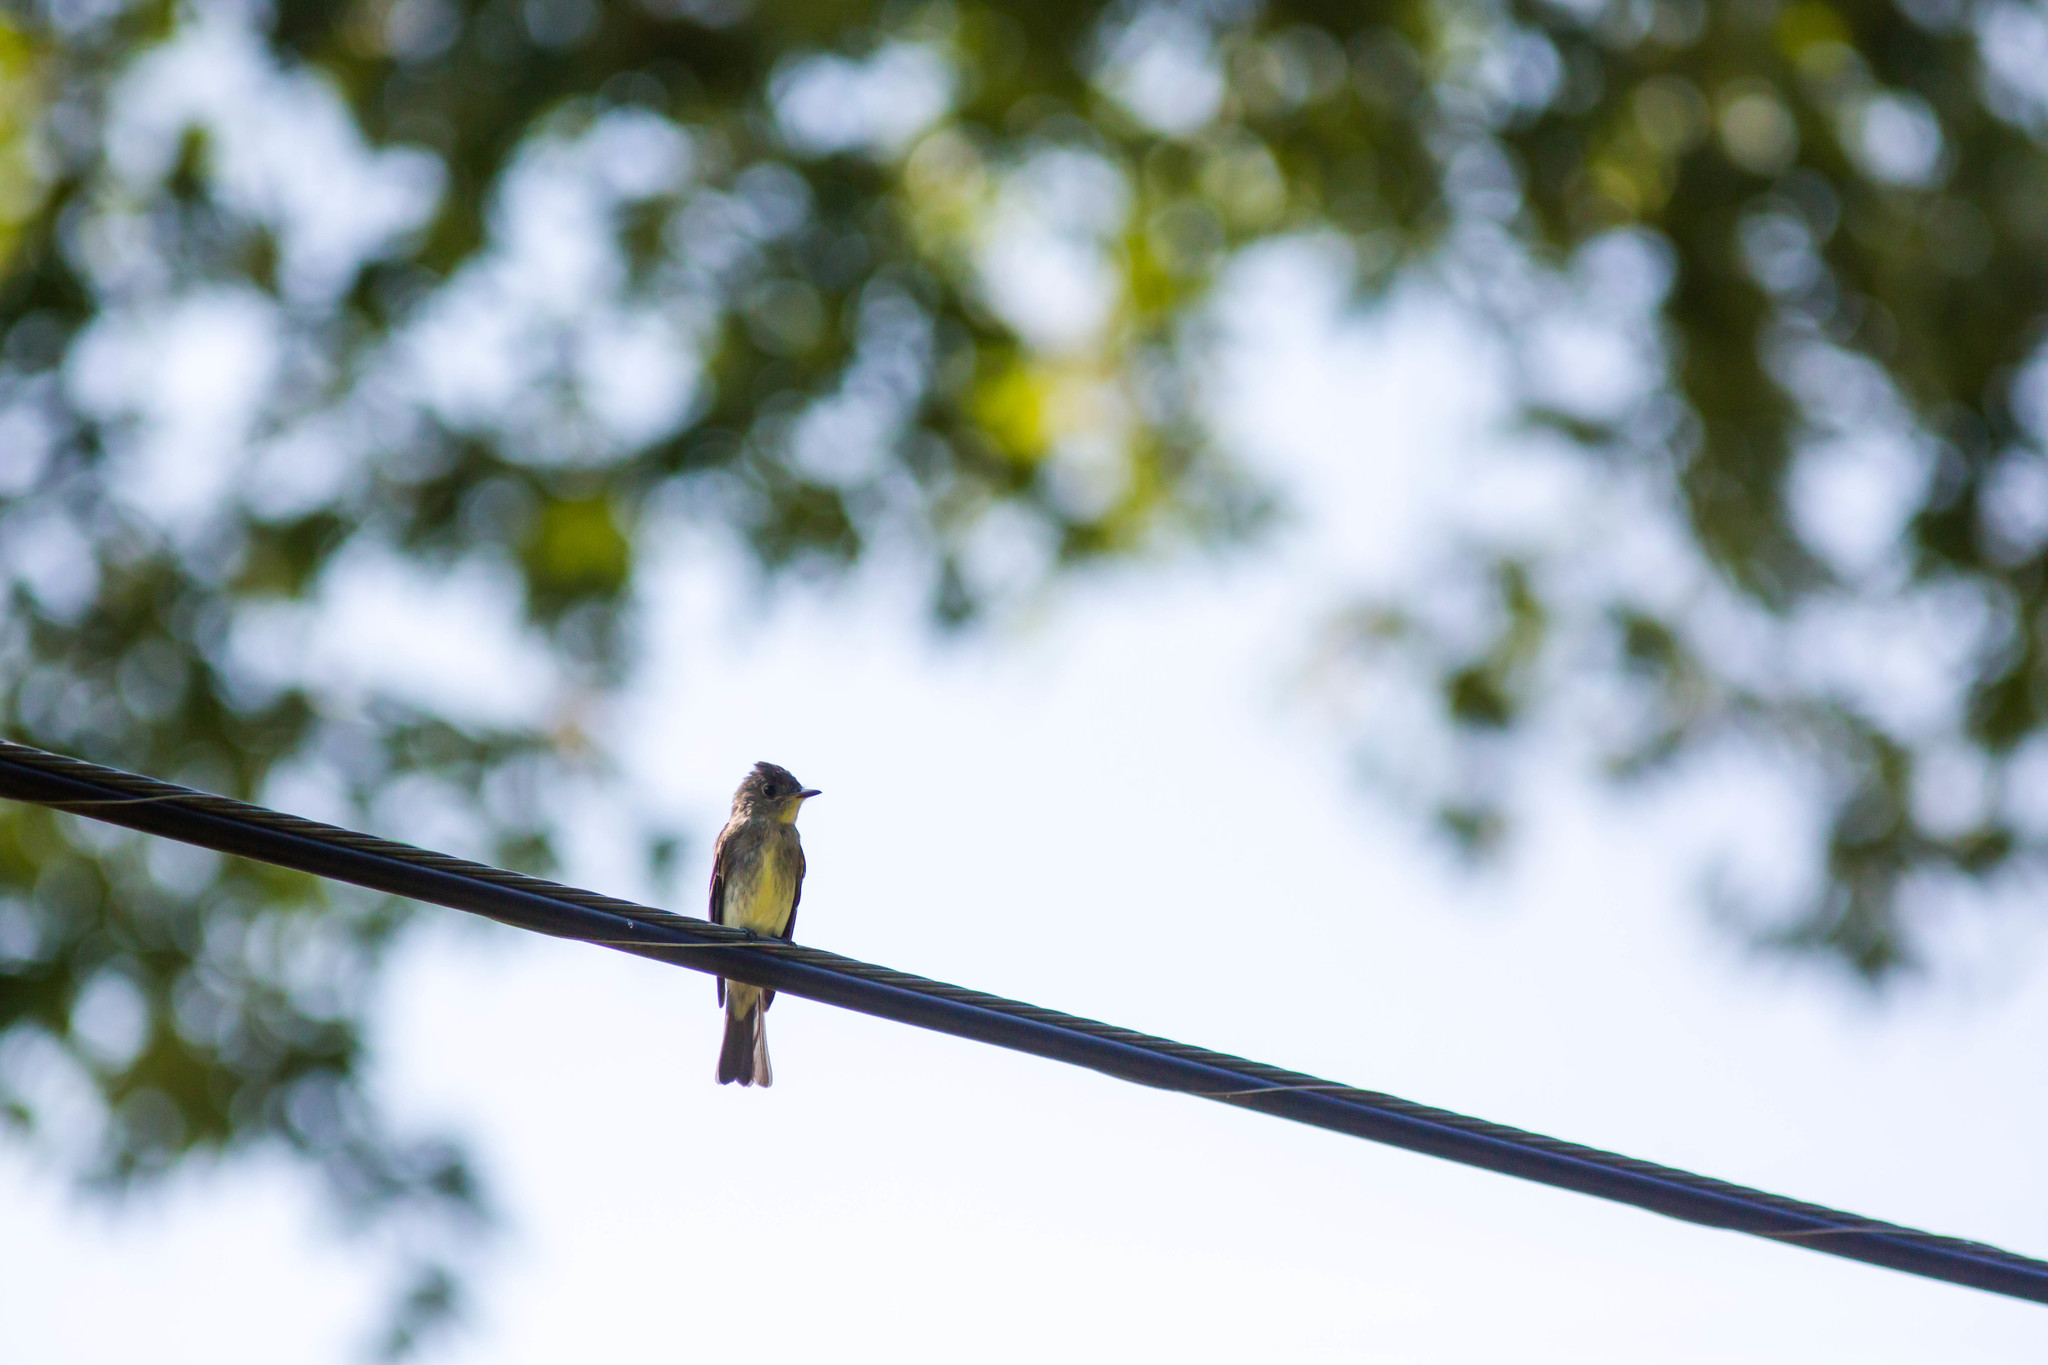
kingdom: Animalia
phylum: Chordata
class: Aves
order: Passeriformes
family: Tyrannidae
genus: Contopus
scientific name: Contopus virens
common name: Eastern wood-pewee
